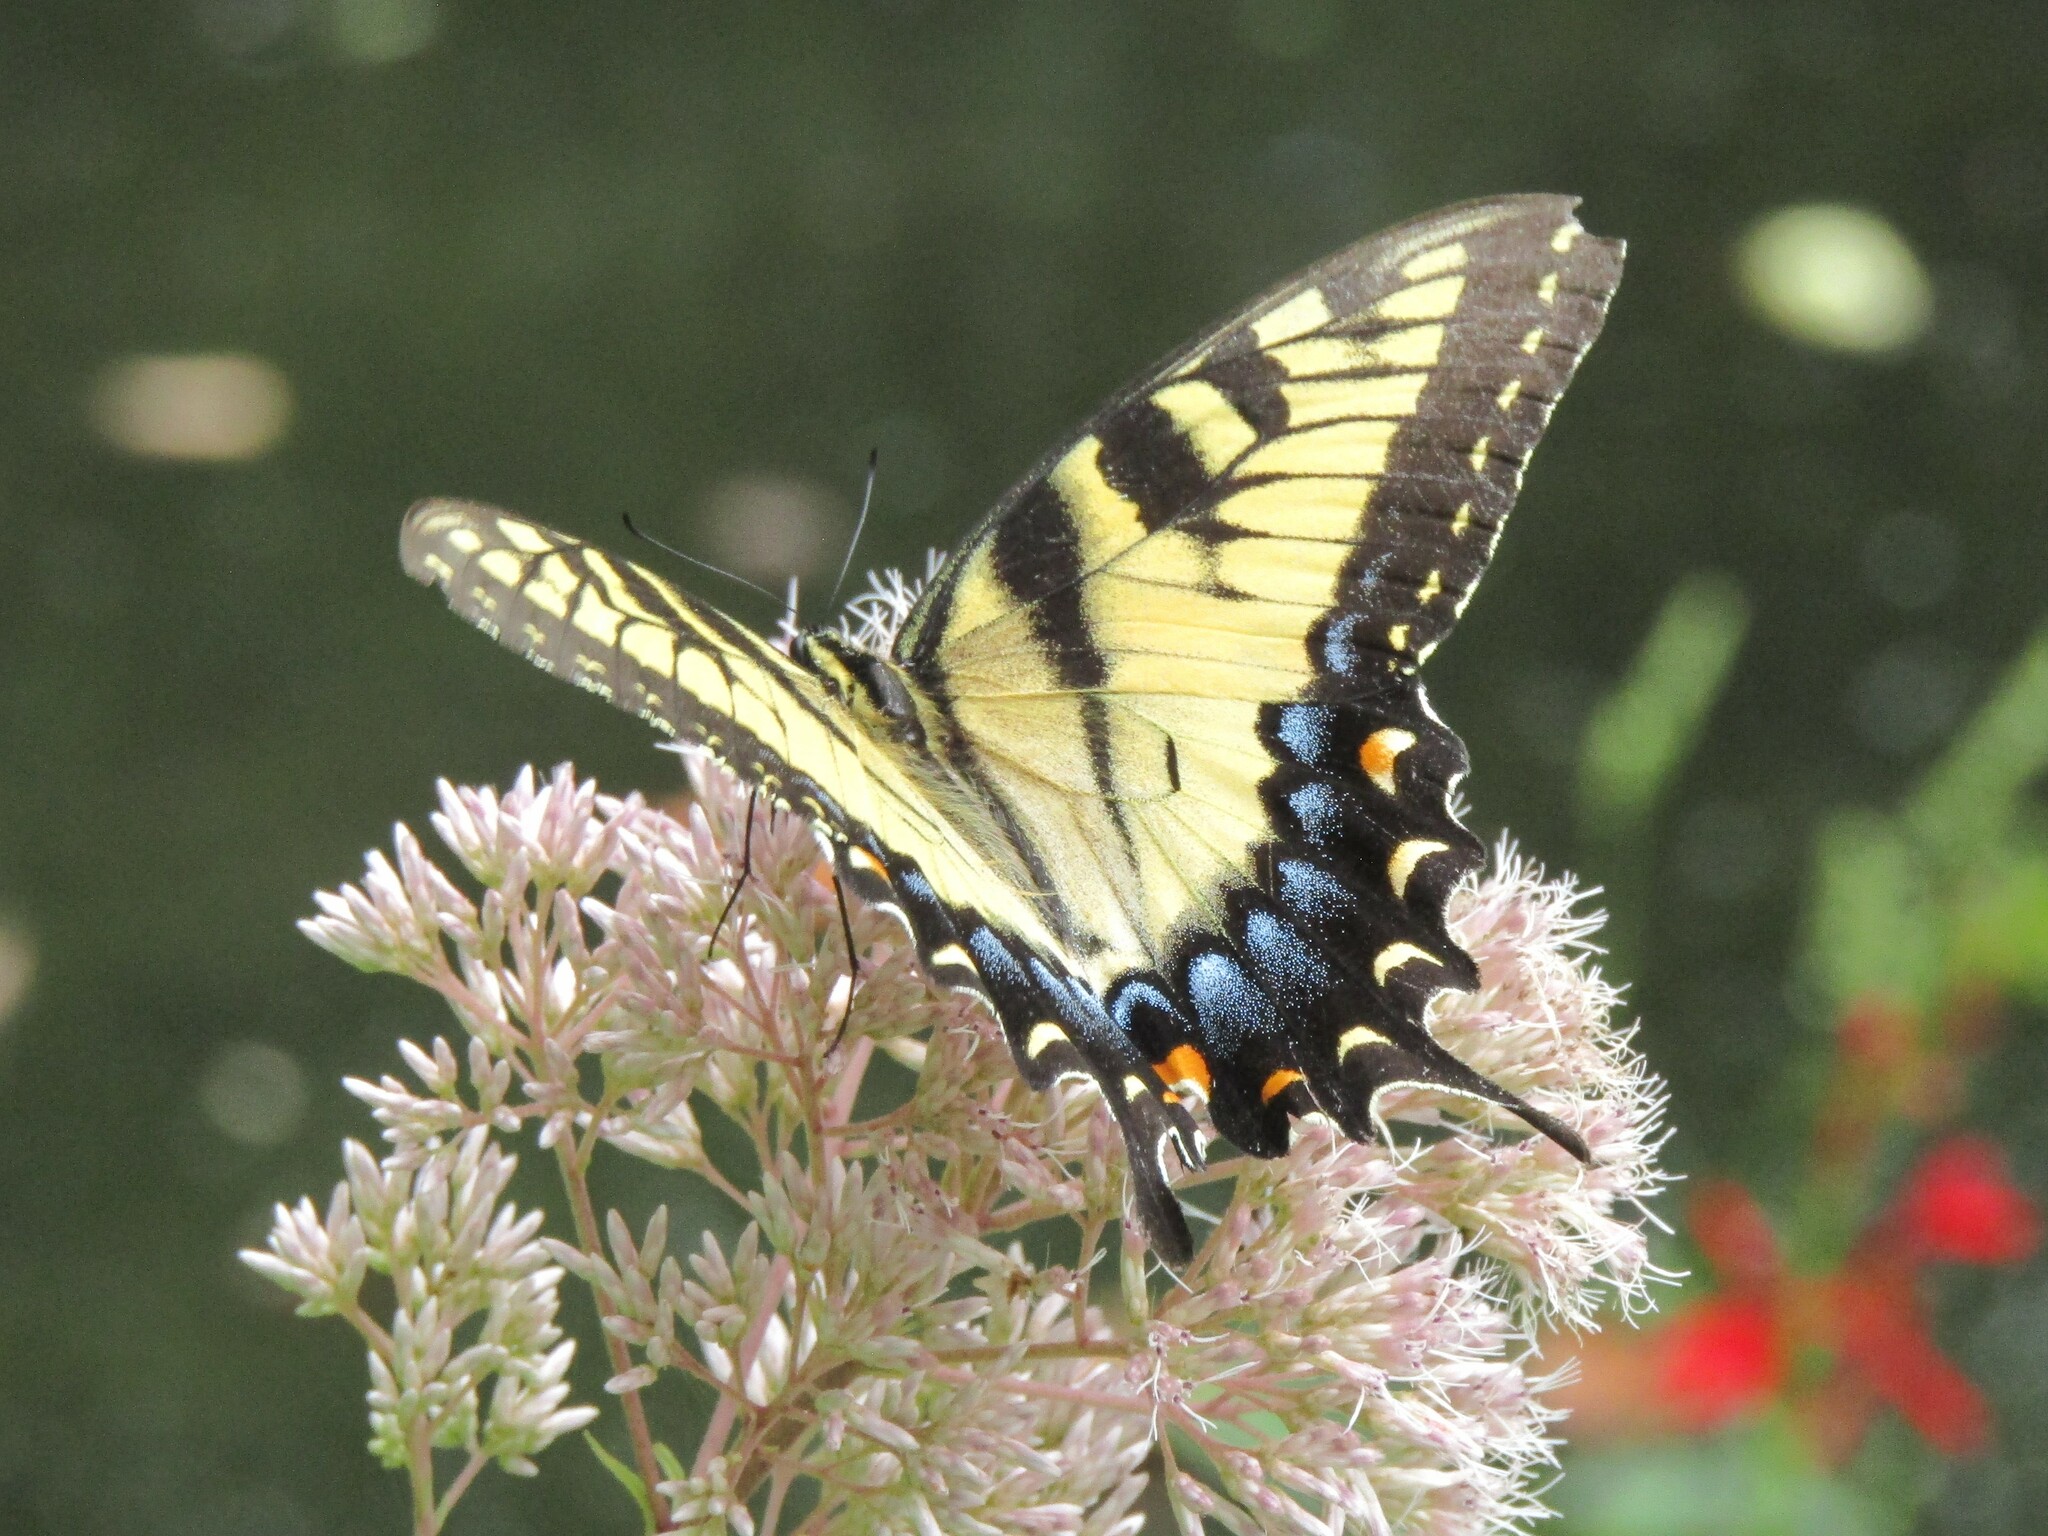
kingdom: Animalia
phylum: Arthropoda
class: Insecta
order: Lepidoptera
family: Papilionidae
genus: Papilio
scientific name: Papilio glaucus
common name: Tiger swallowtail
